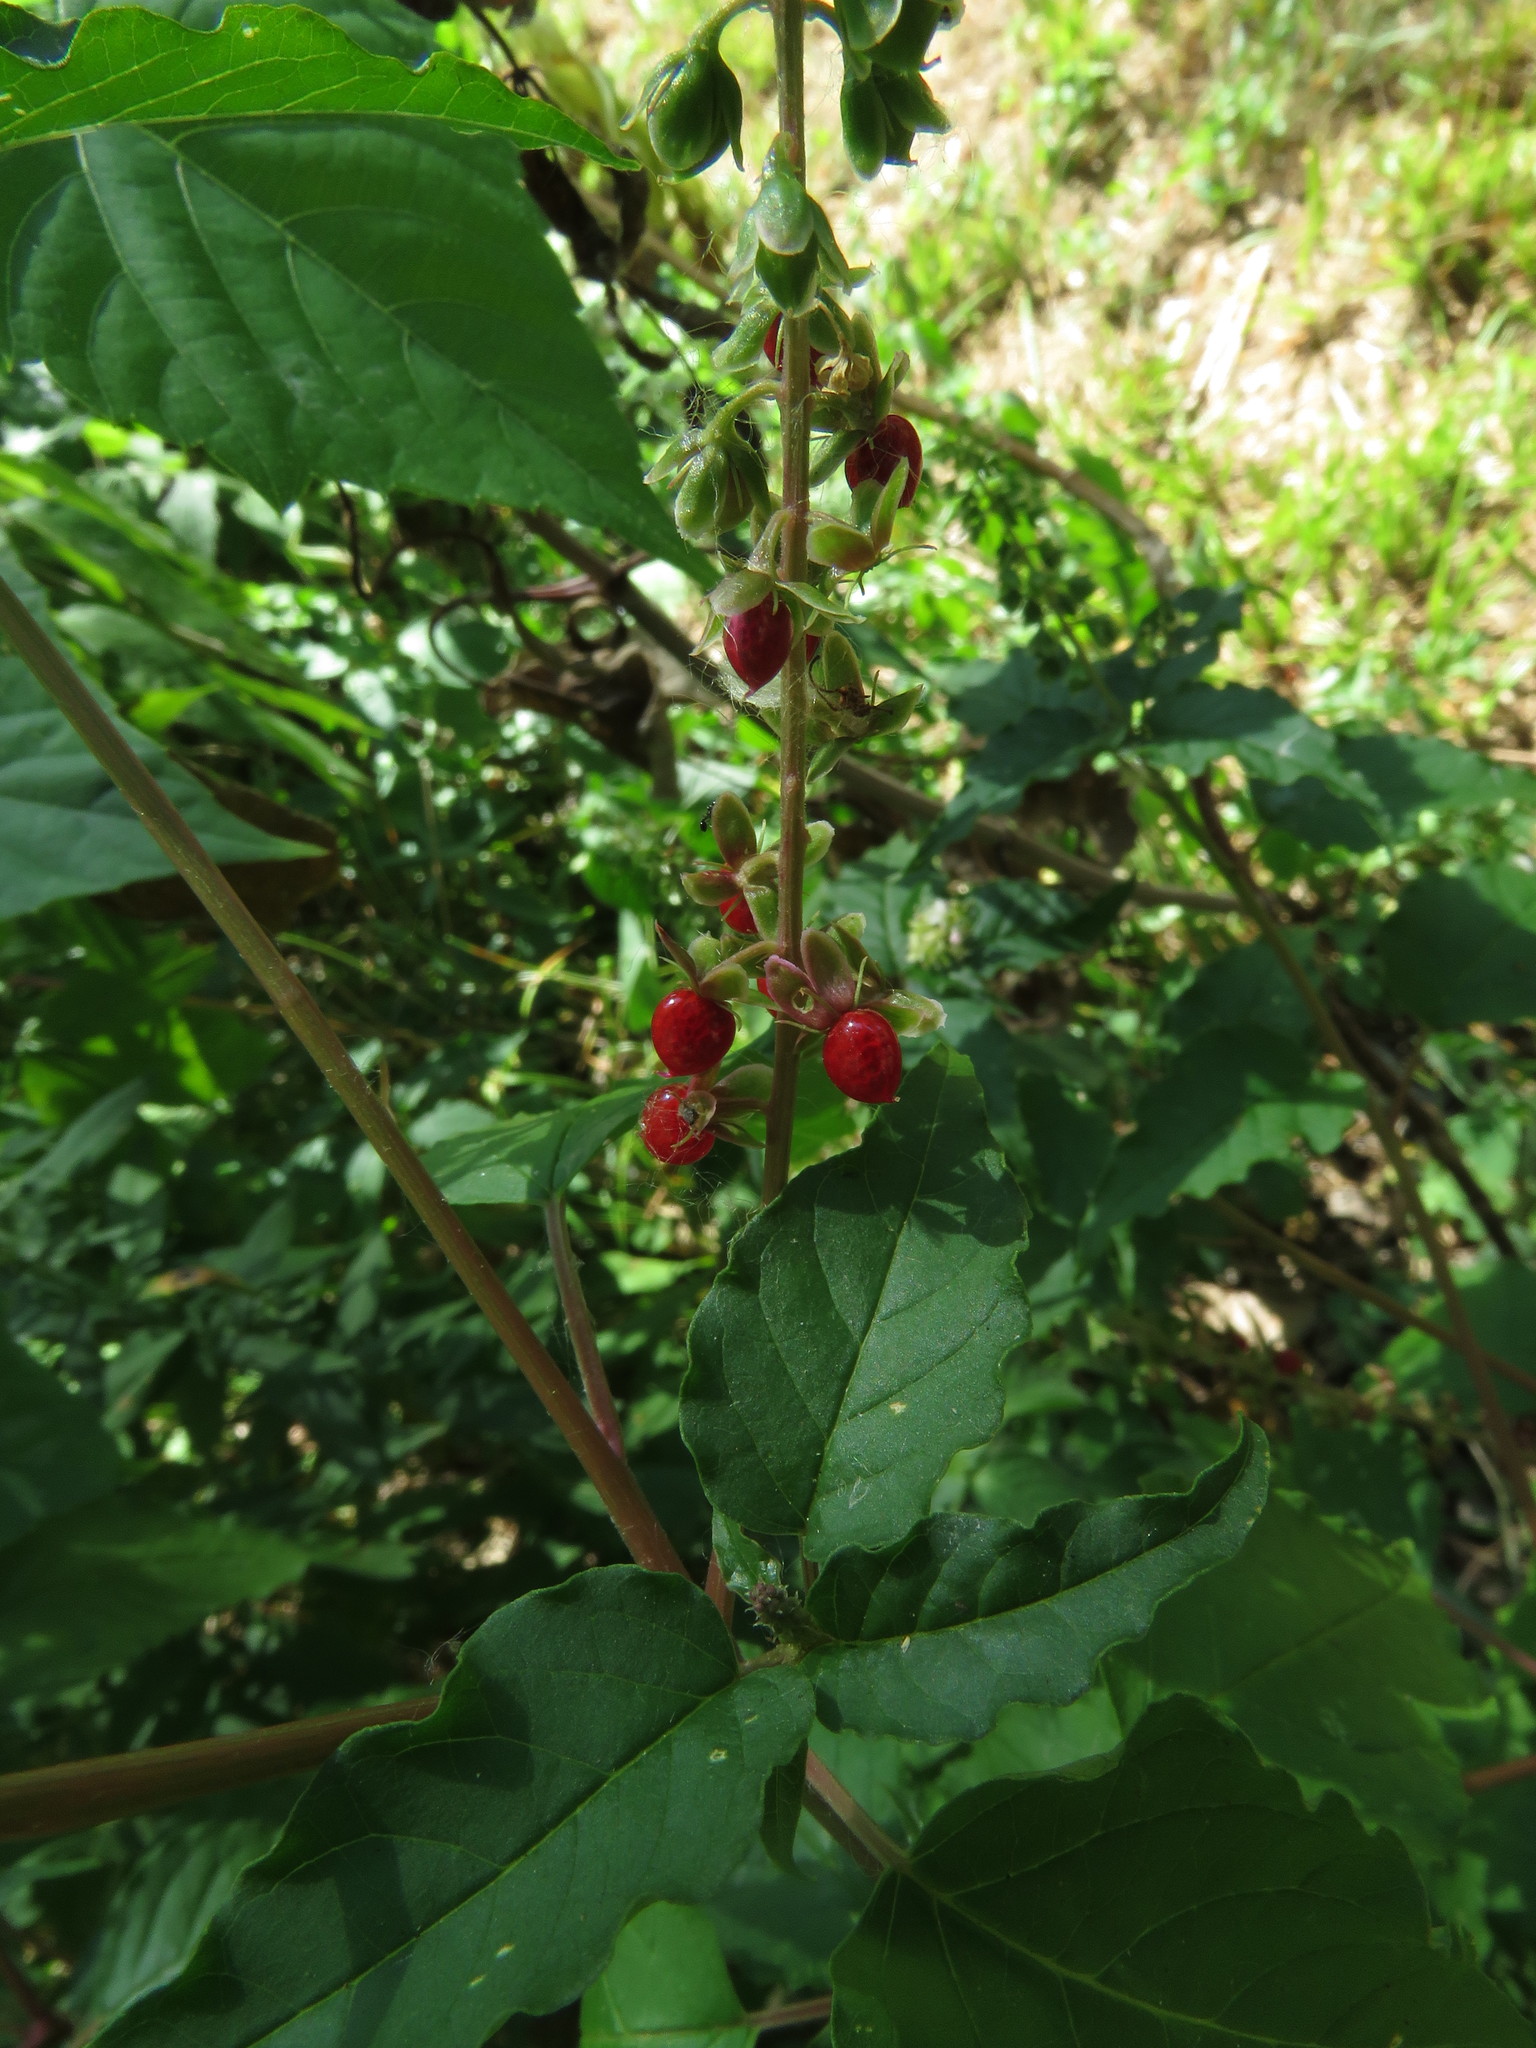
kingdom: Plantae
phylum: Tracheophyta
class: Magnoliopsida
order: Caryophyllales
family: Phytolaccaceae
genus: Rivina
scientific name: Rivina humilis
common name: Rougeplant
